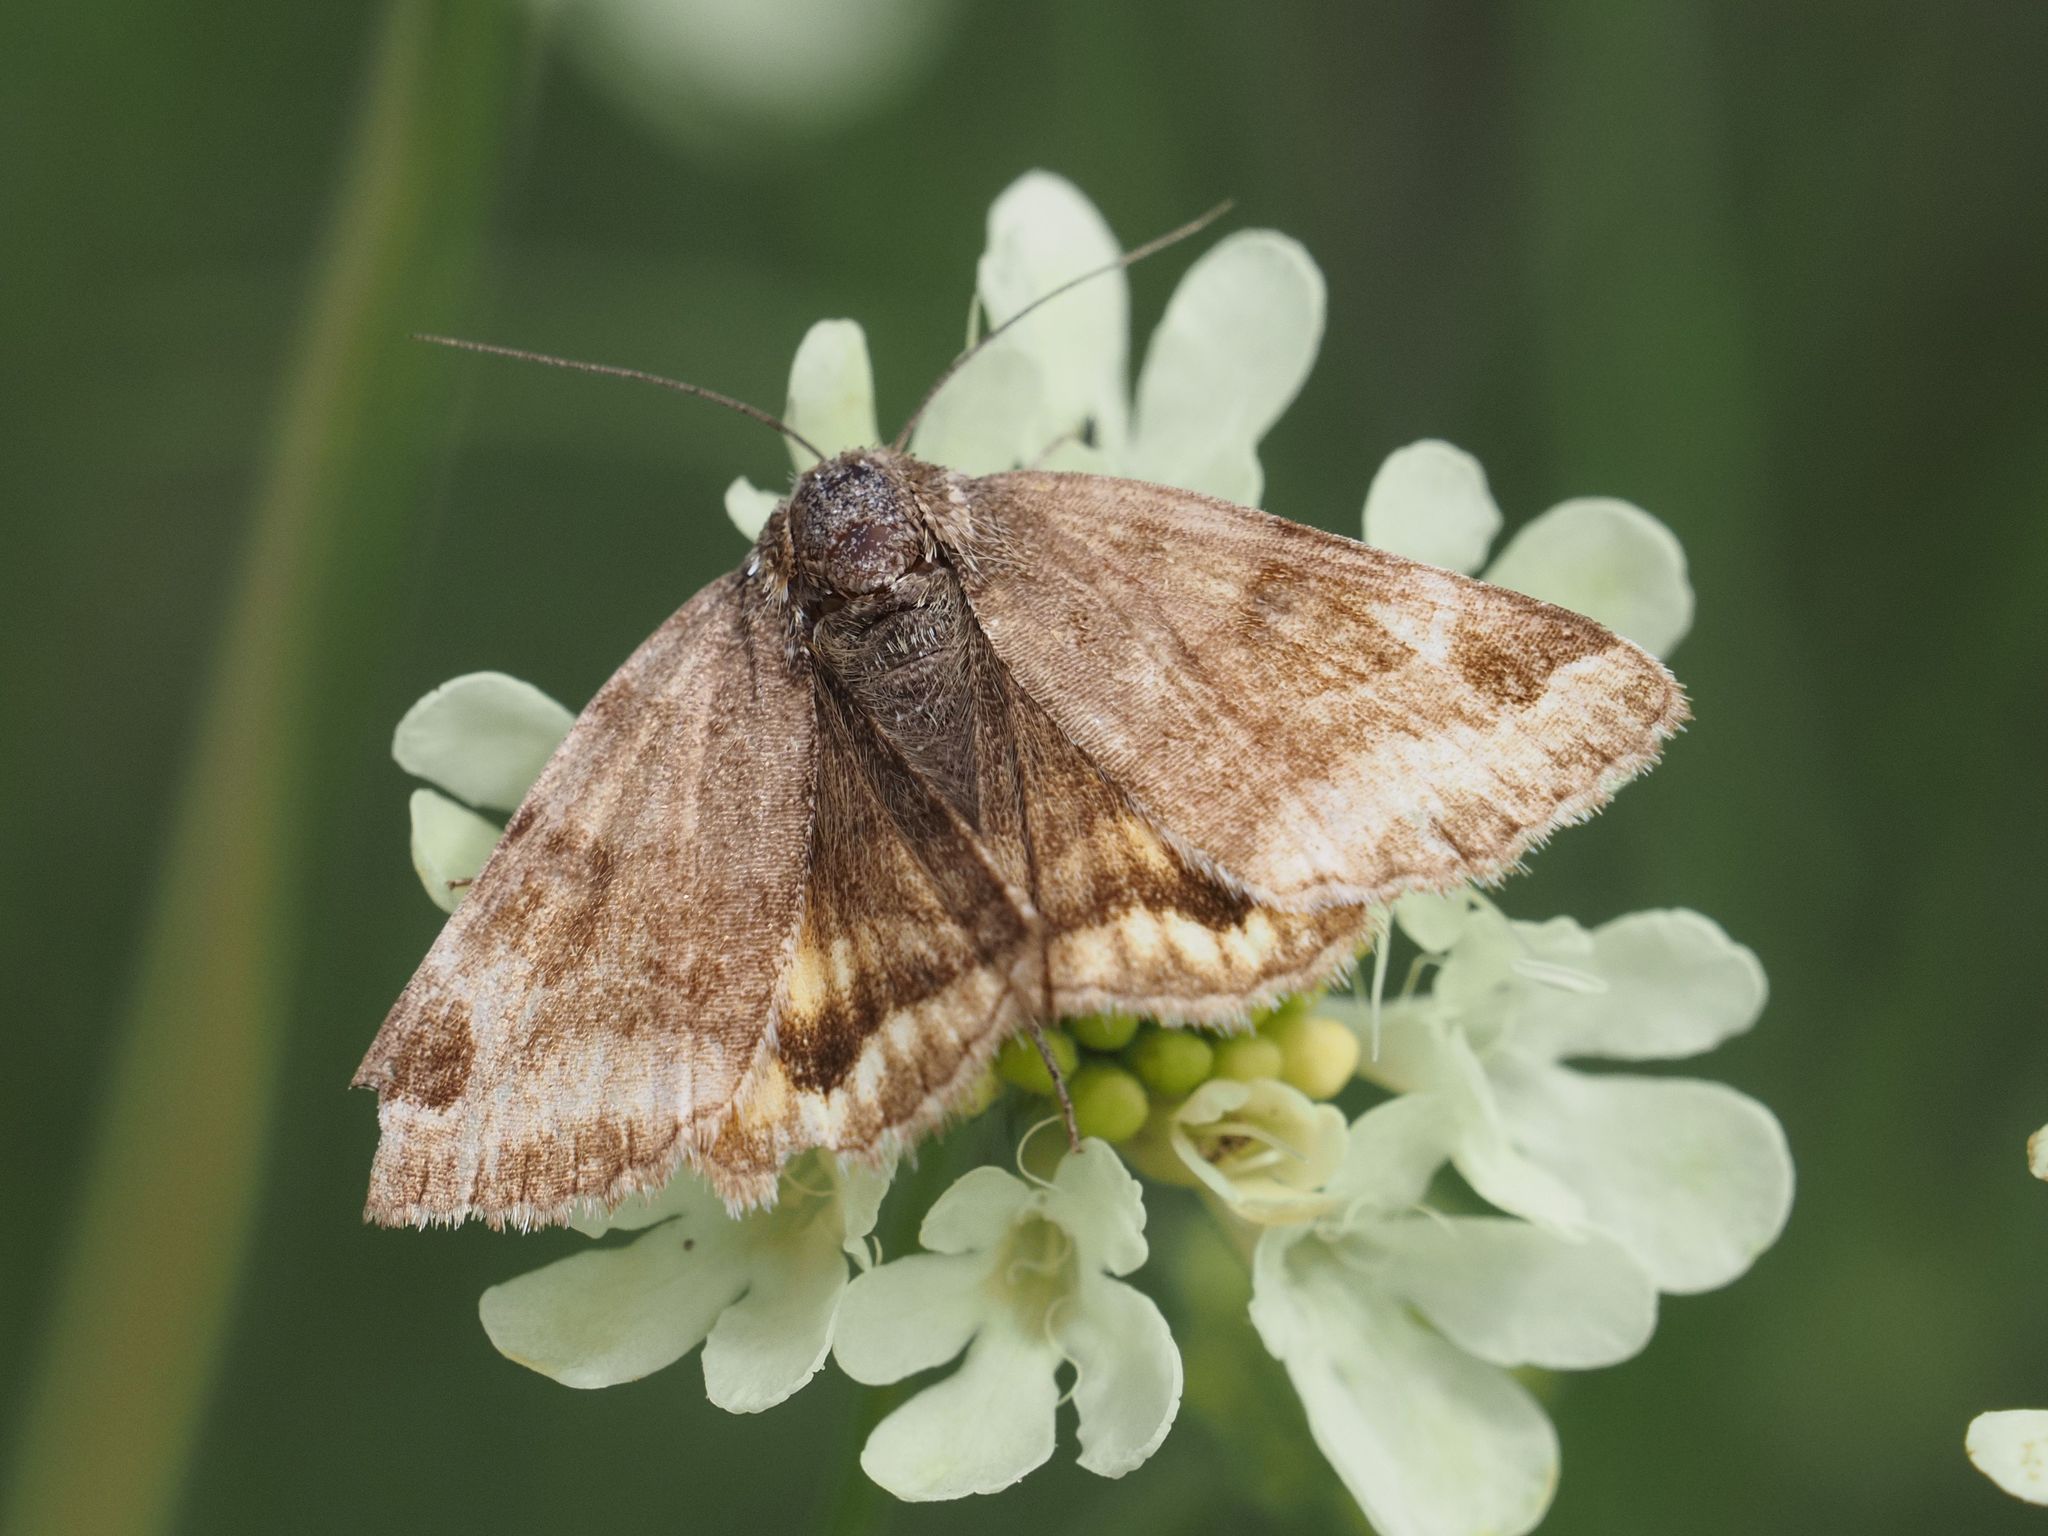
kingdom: Animalia
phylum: Arthropoda
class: Insecta
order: Lepidoptera
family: Erebidae
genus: Euclidia
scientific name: Euclidia glyphica
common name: Burnet companion
